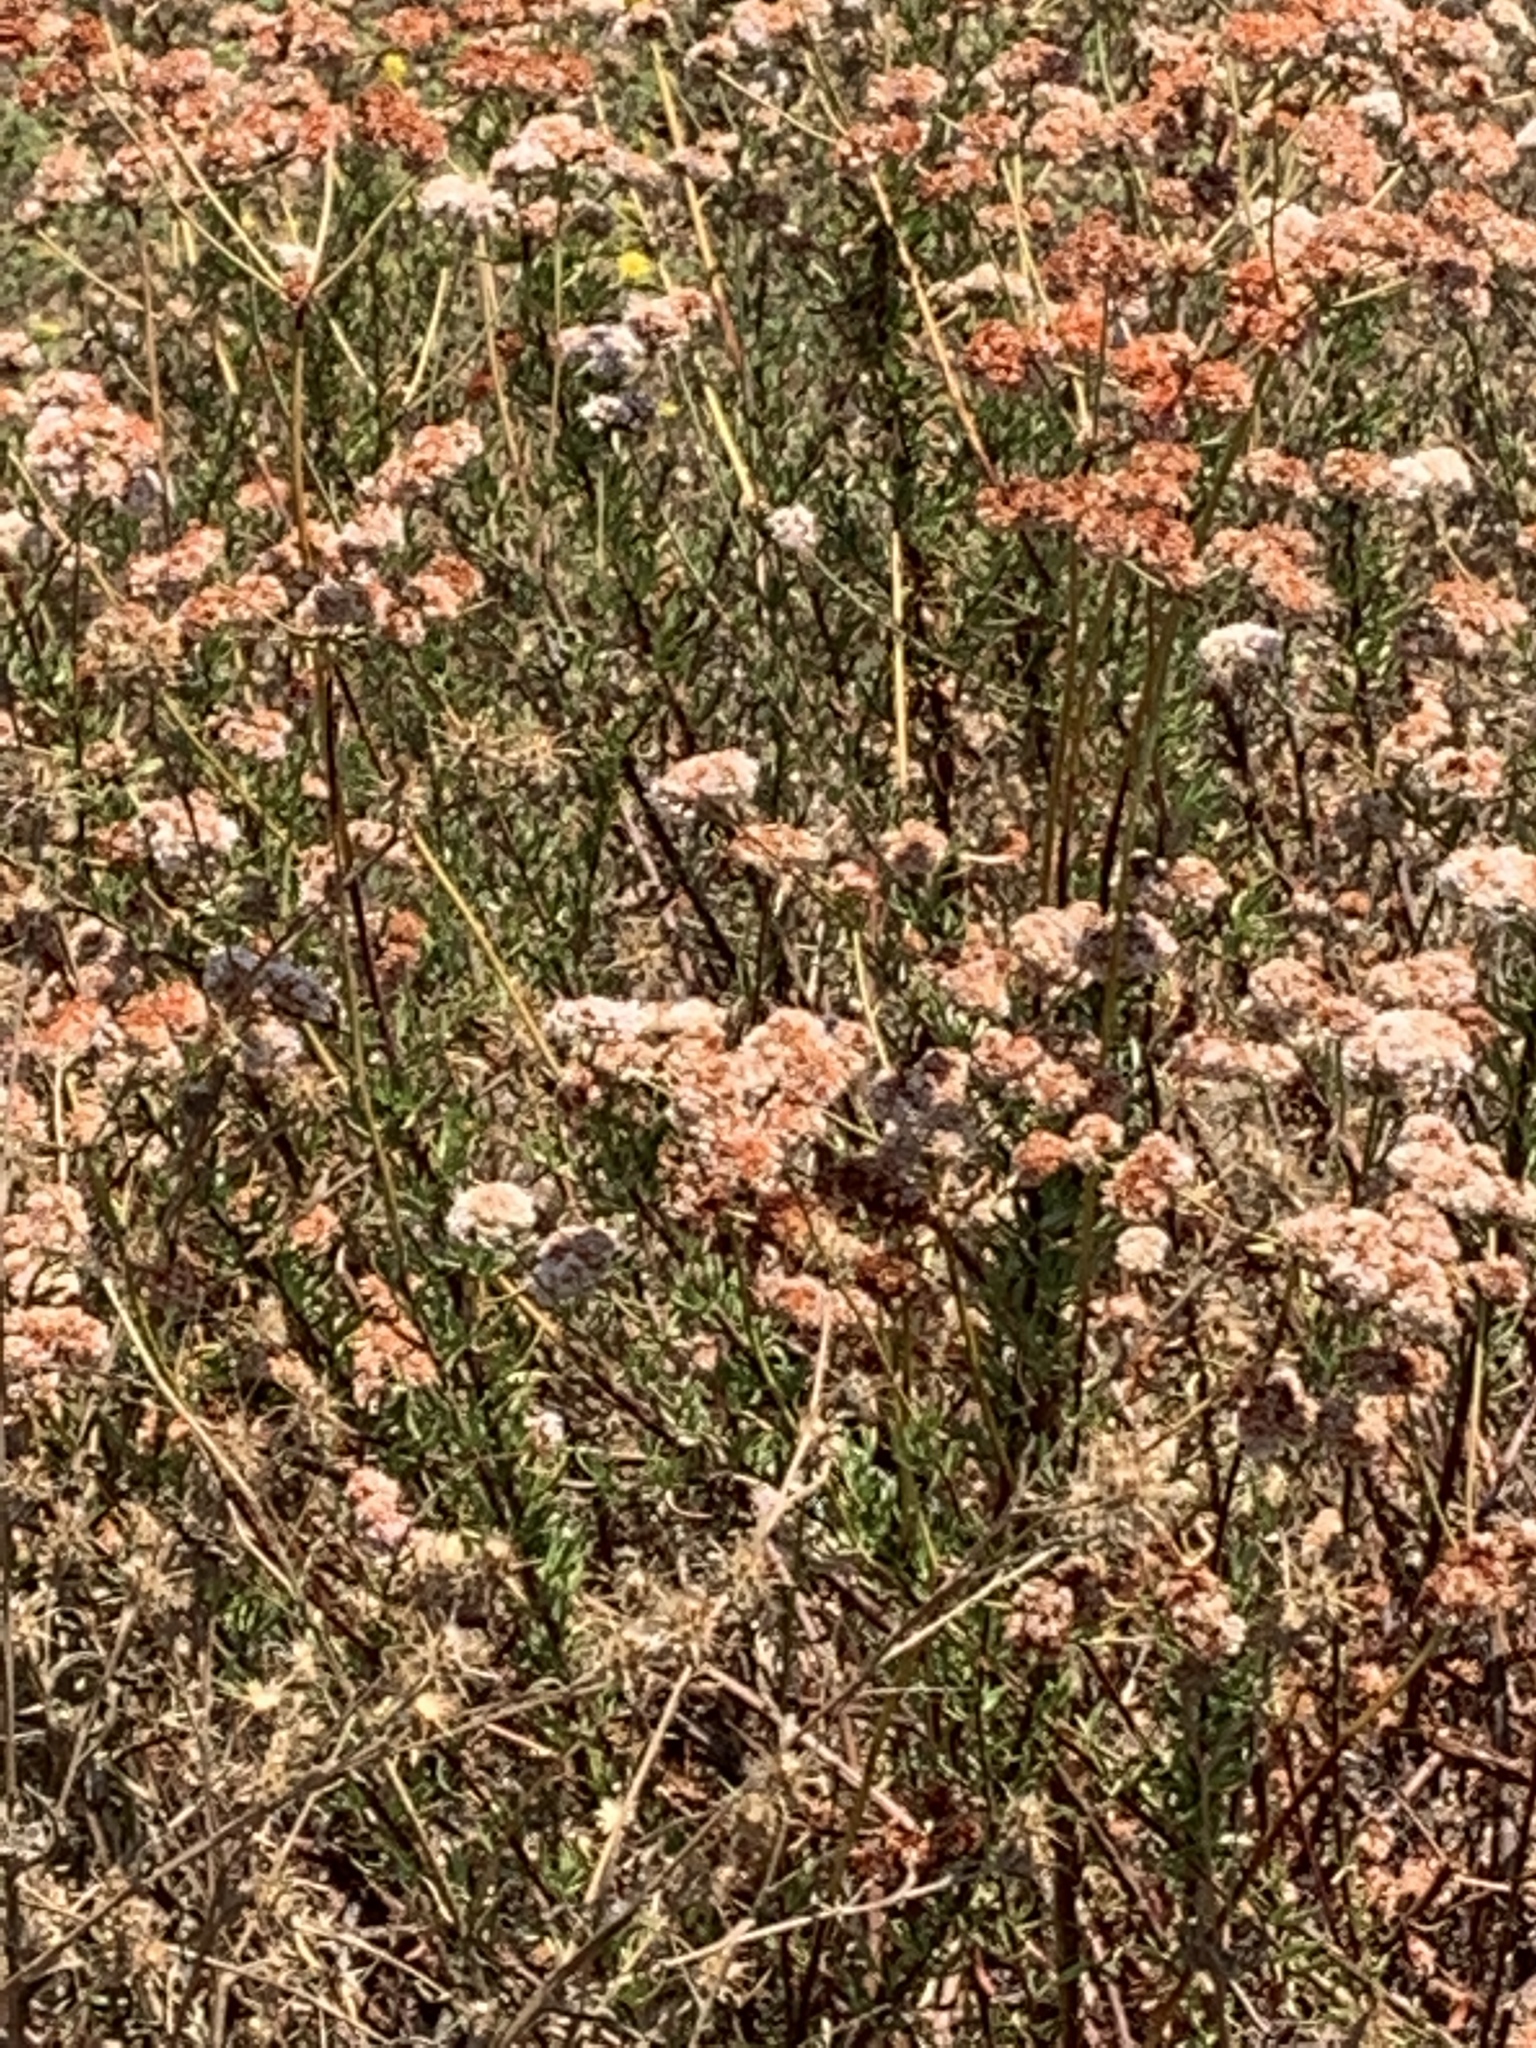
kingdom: Plantae
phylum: Tracheophyta
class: Magnoliopsida
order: Caryophyllales
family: Polygonaceae
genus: Eriogonum
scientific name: Eriogonum fasciculatum
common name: California wild buckwheat
